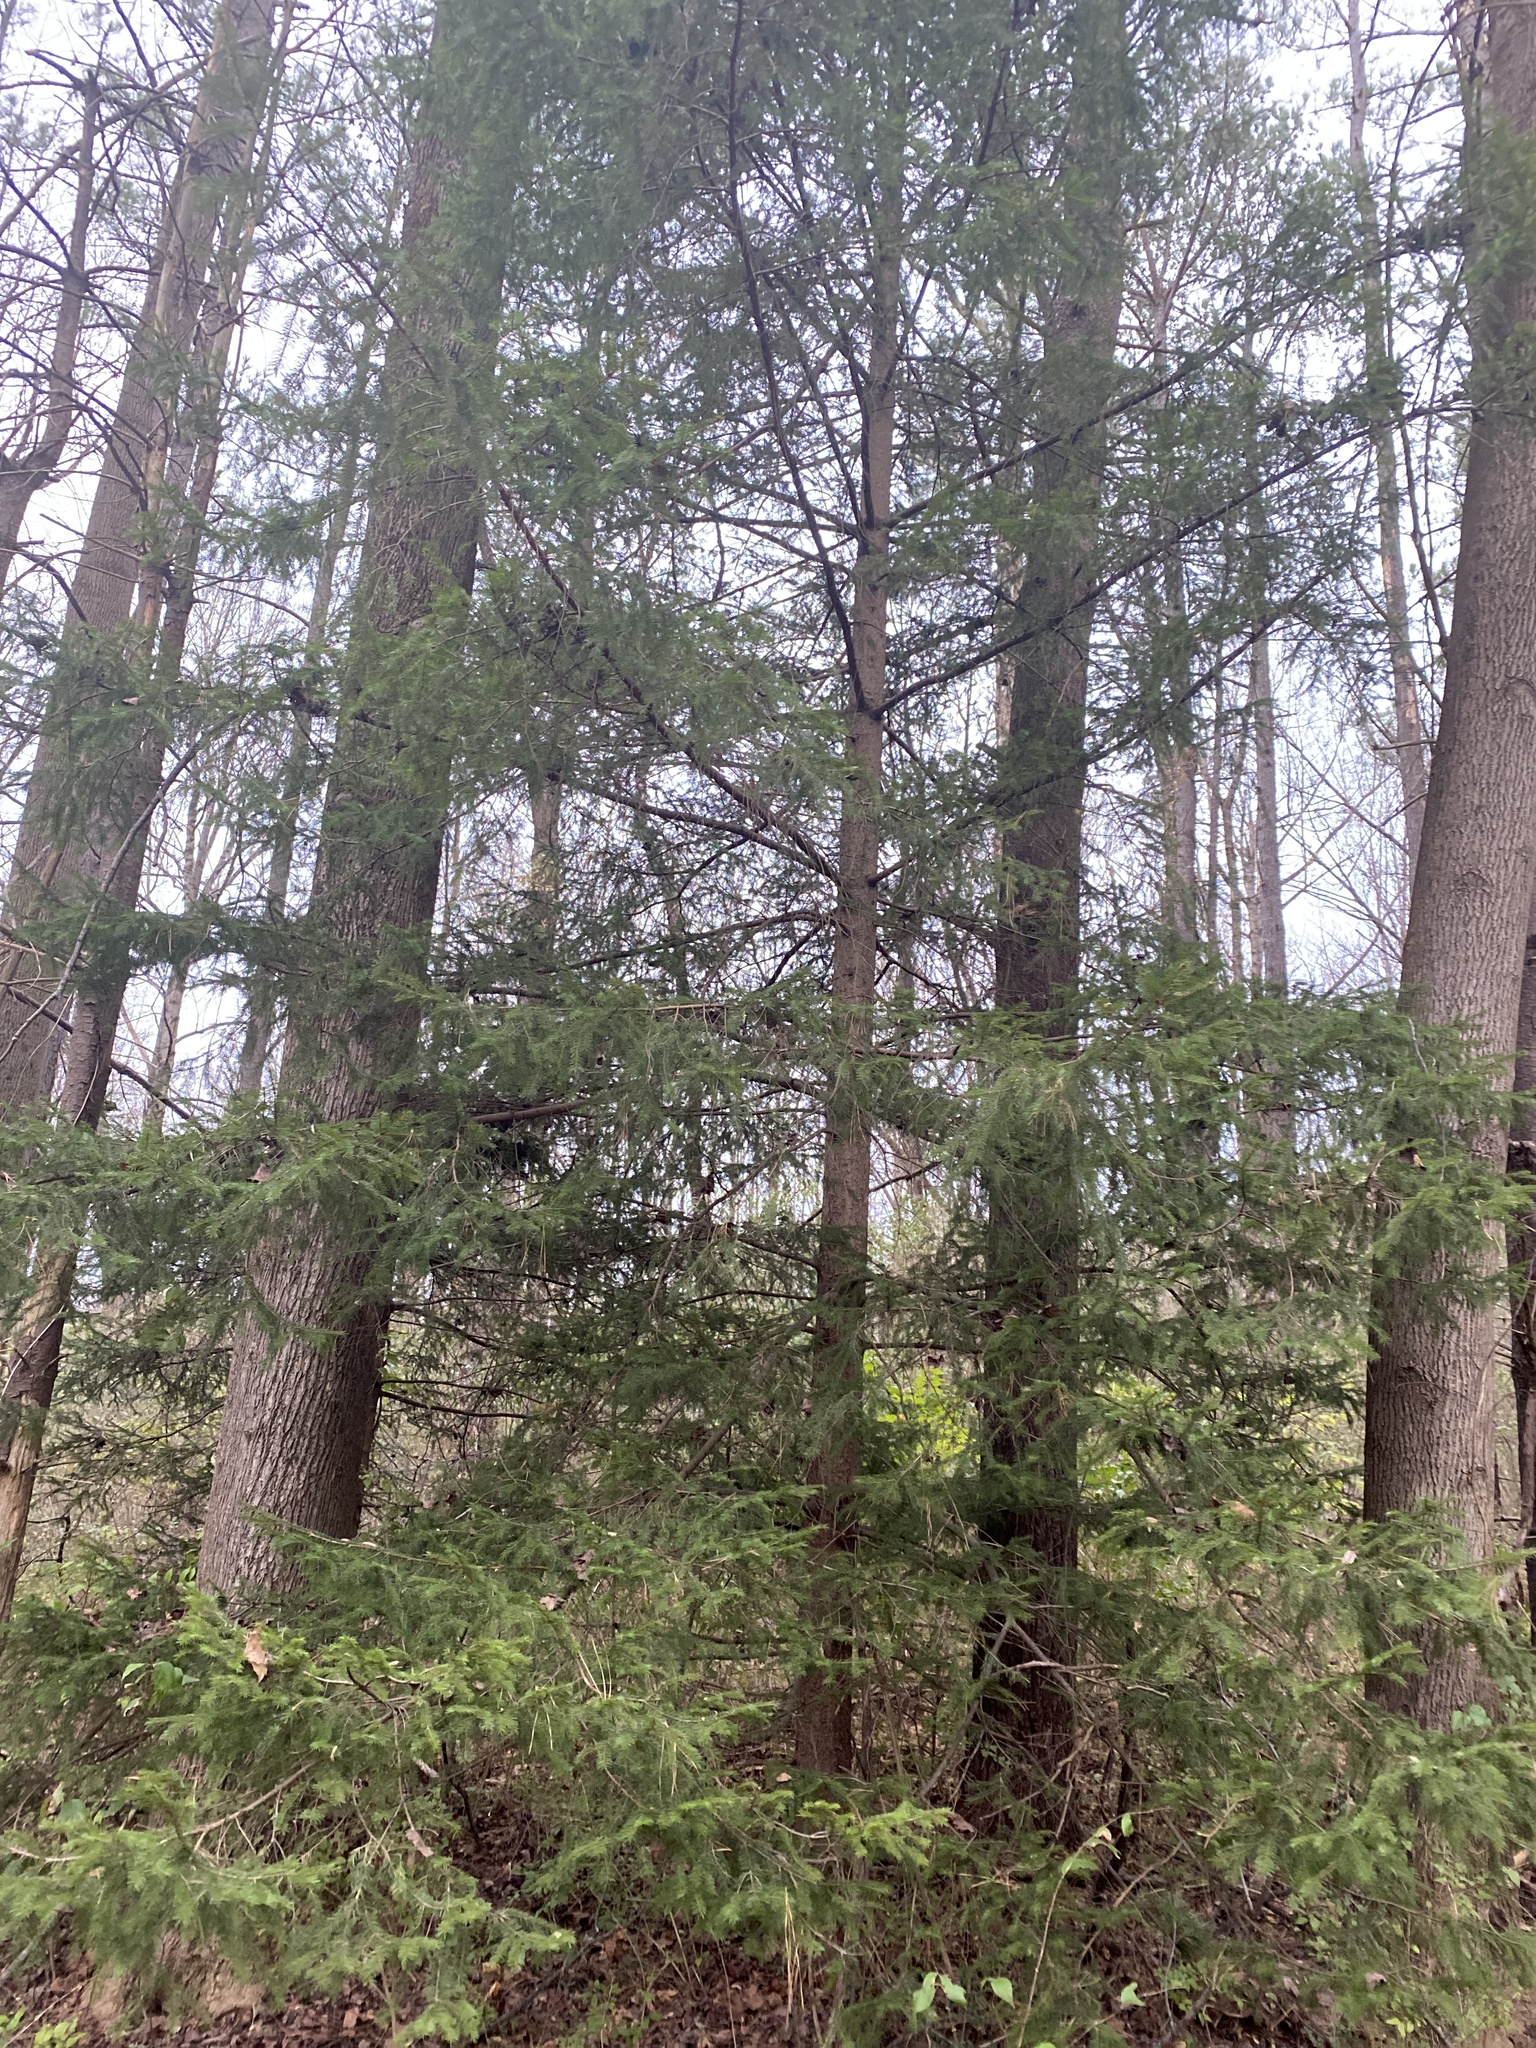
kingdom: Plantae
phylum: Tracheophyta
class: Pinopsida
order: Pinales
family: Pinaceae
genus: Picea
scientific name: Picea abies
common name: Norway spruce
